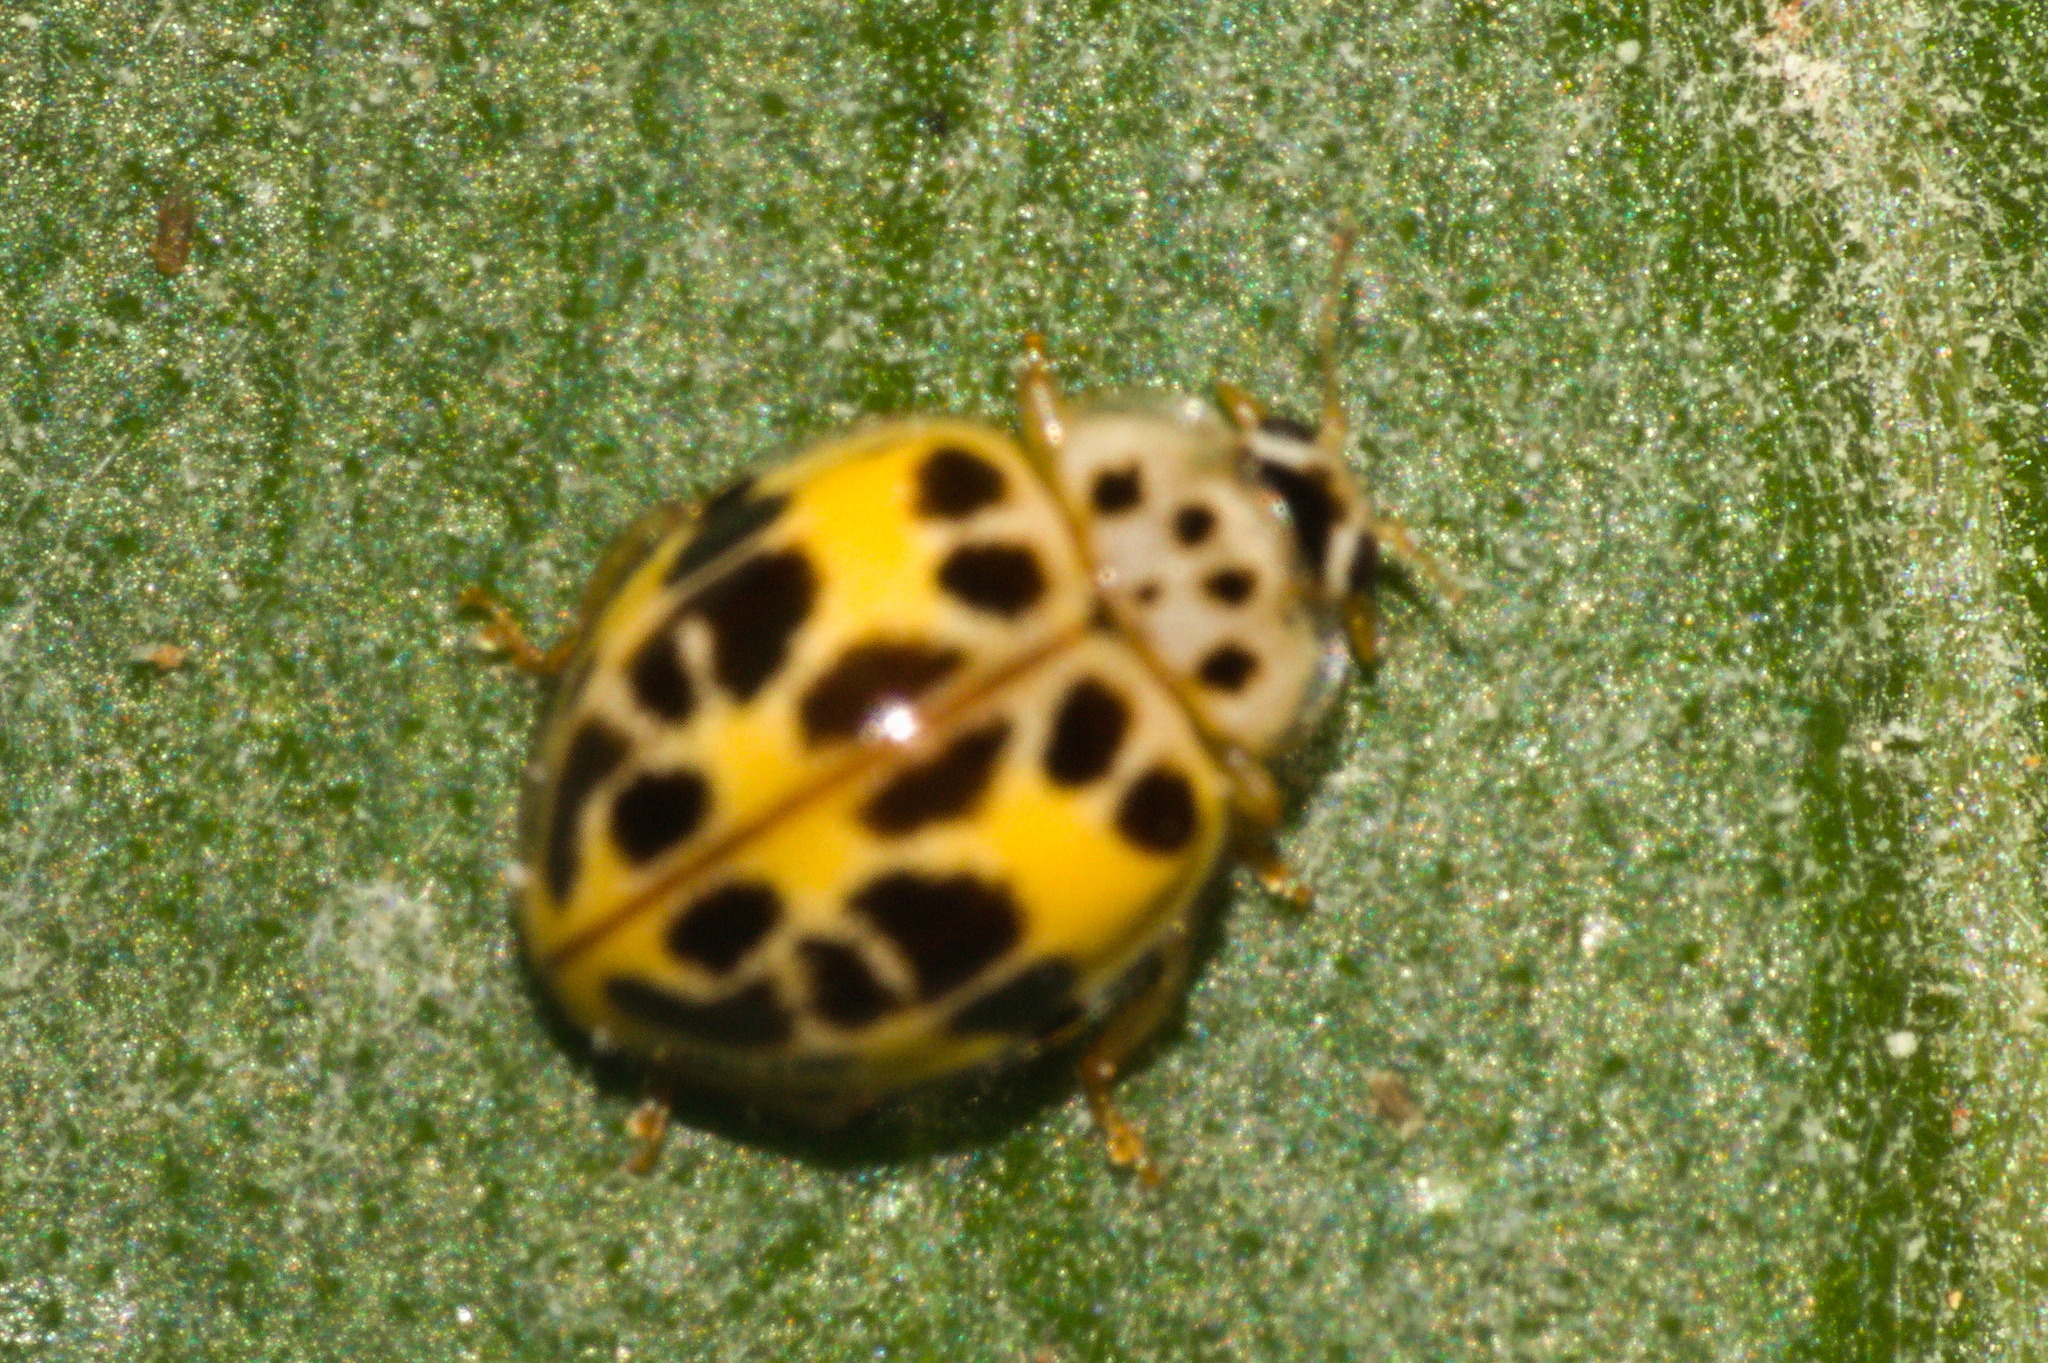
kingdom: Animalia
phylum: Arthropoda
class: Insecta
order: Coleoptera
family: Coccinellidae
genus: Psyllobora
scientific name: Psyllobora
